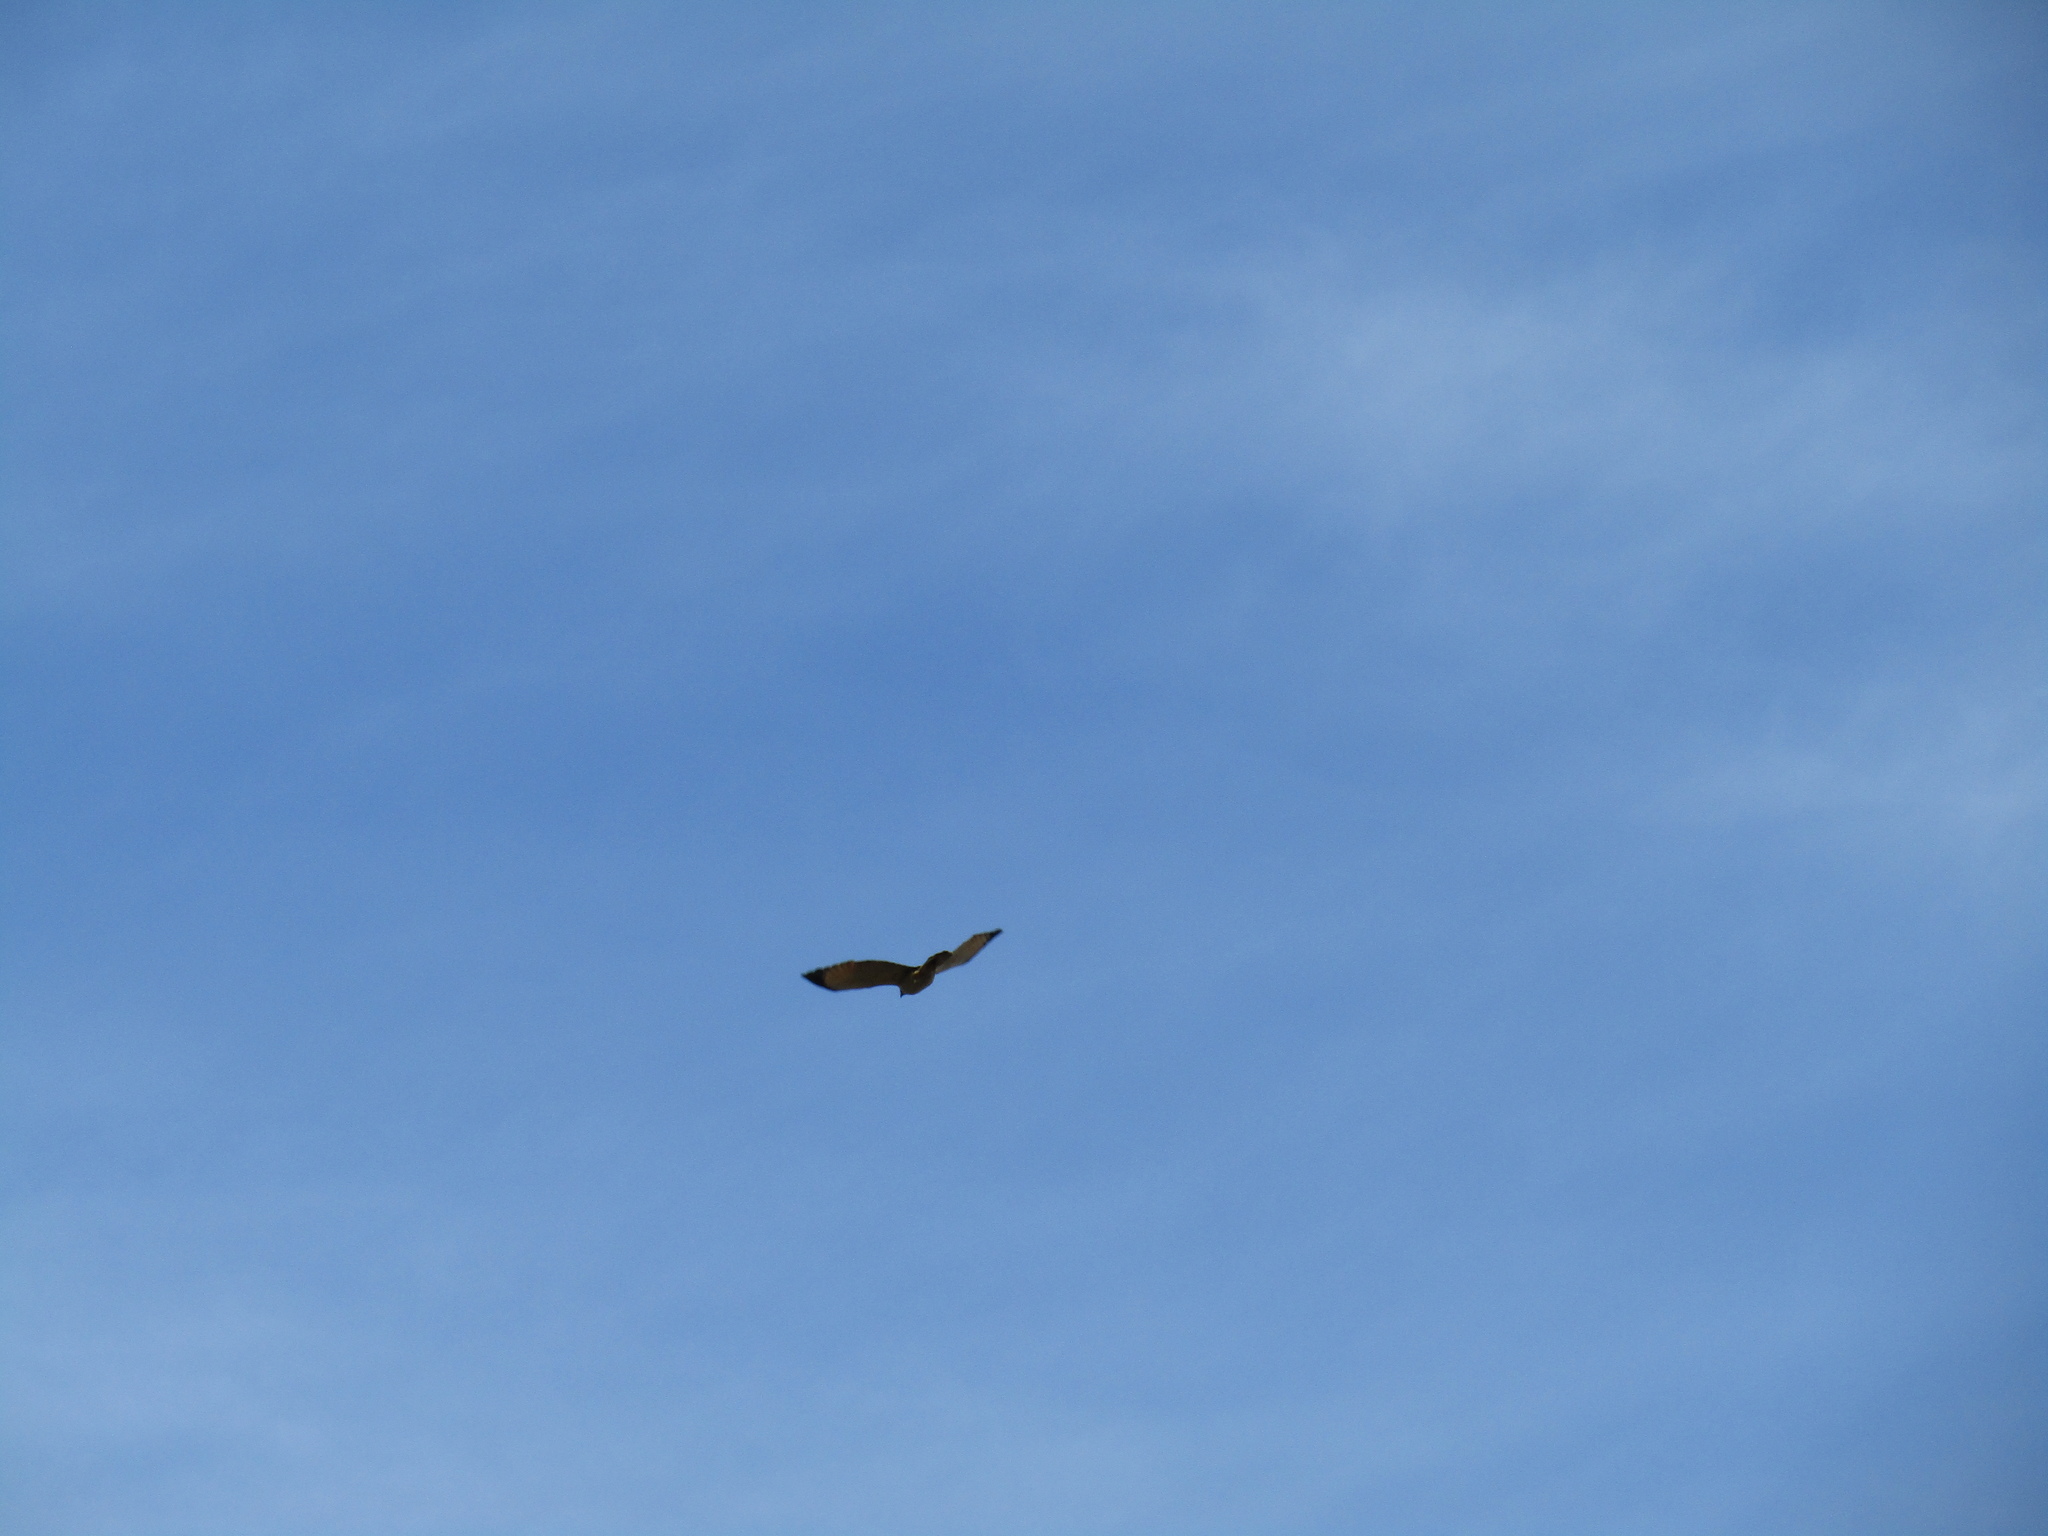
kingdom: Animalia
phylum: Chordata
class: Aves
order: Accipitriformes
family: Accipitridae
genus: Rupornis
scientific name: Rupornis magnirostris
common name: Roadside hawk
